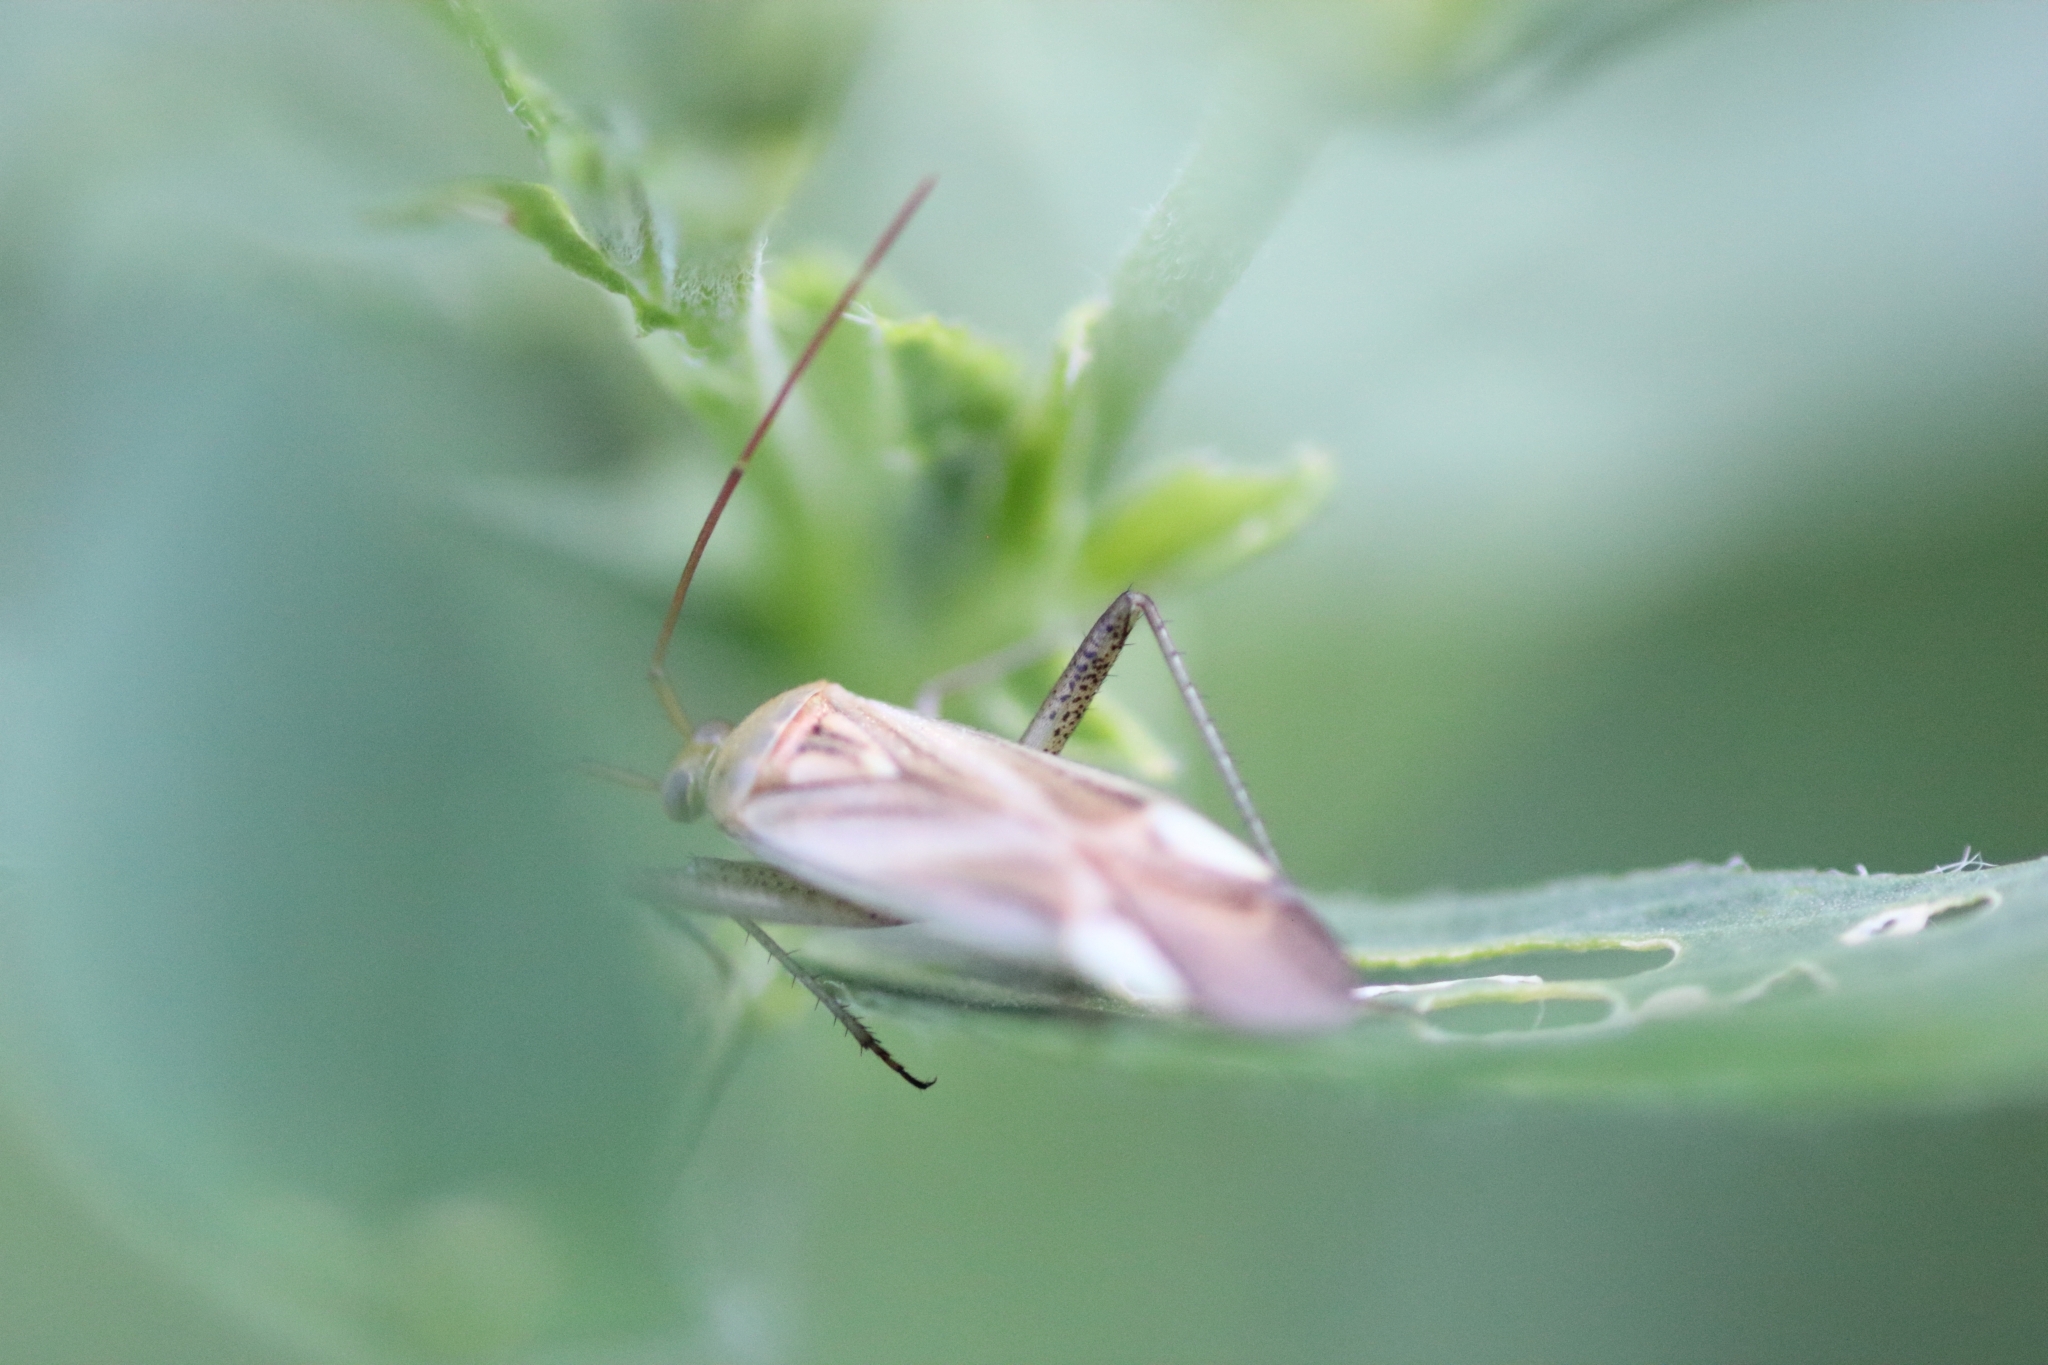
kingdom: Animalia
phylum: Arthropoda
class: Insecta
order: Hemiptera
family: Miridae
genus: Adelphocoris
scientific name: Adelphocoris lineolatus
